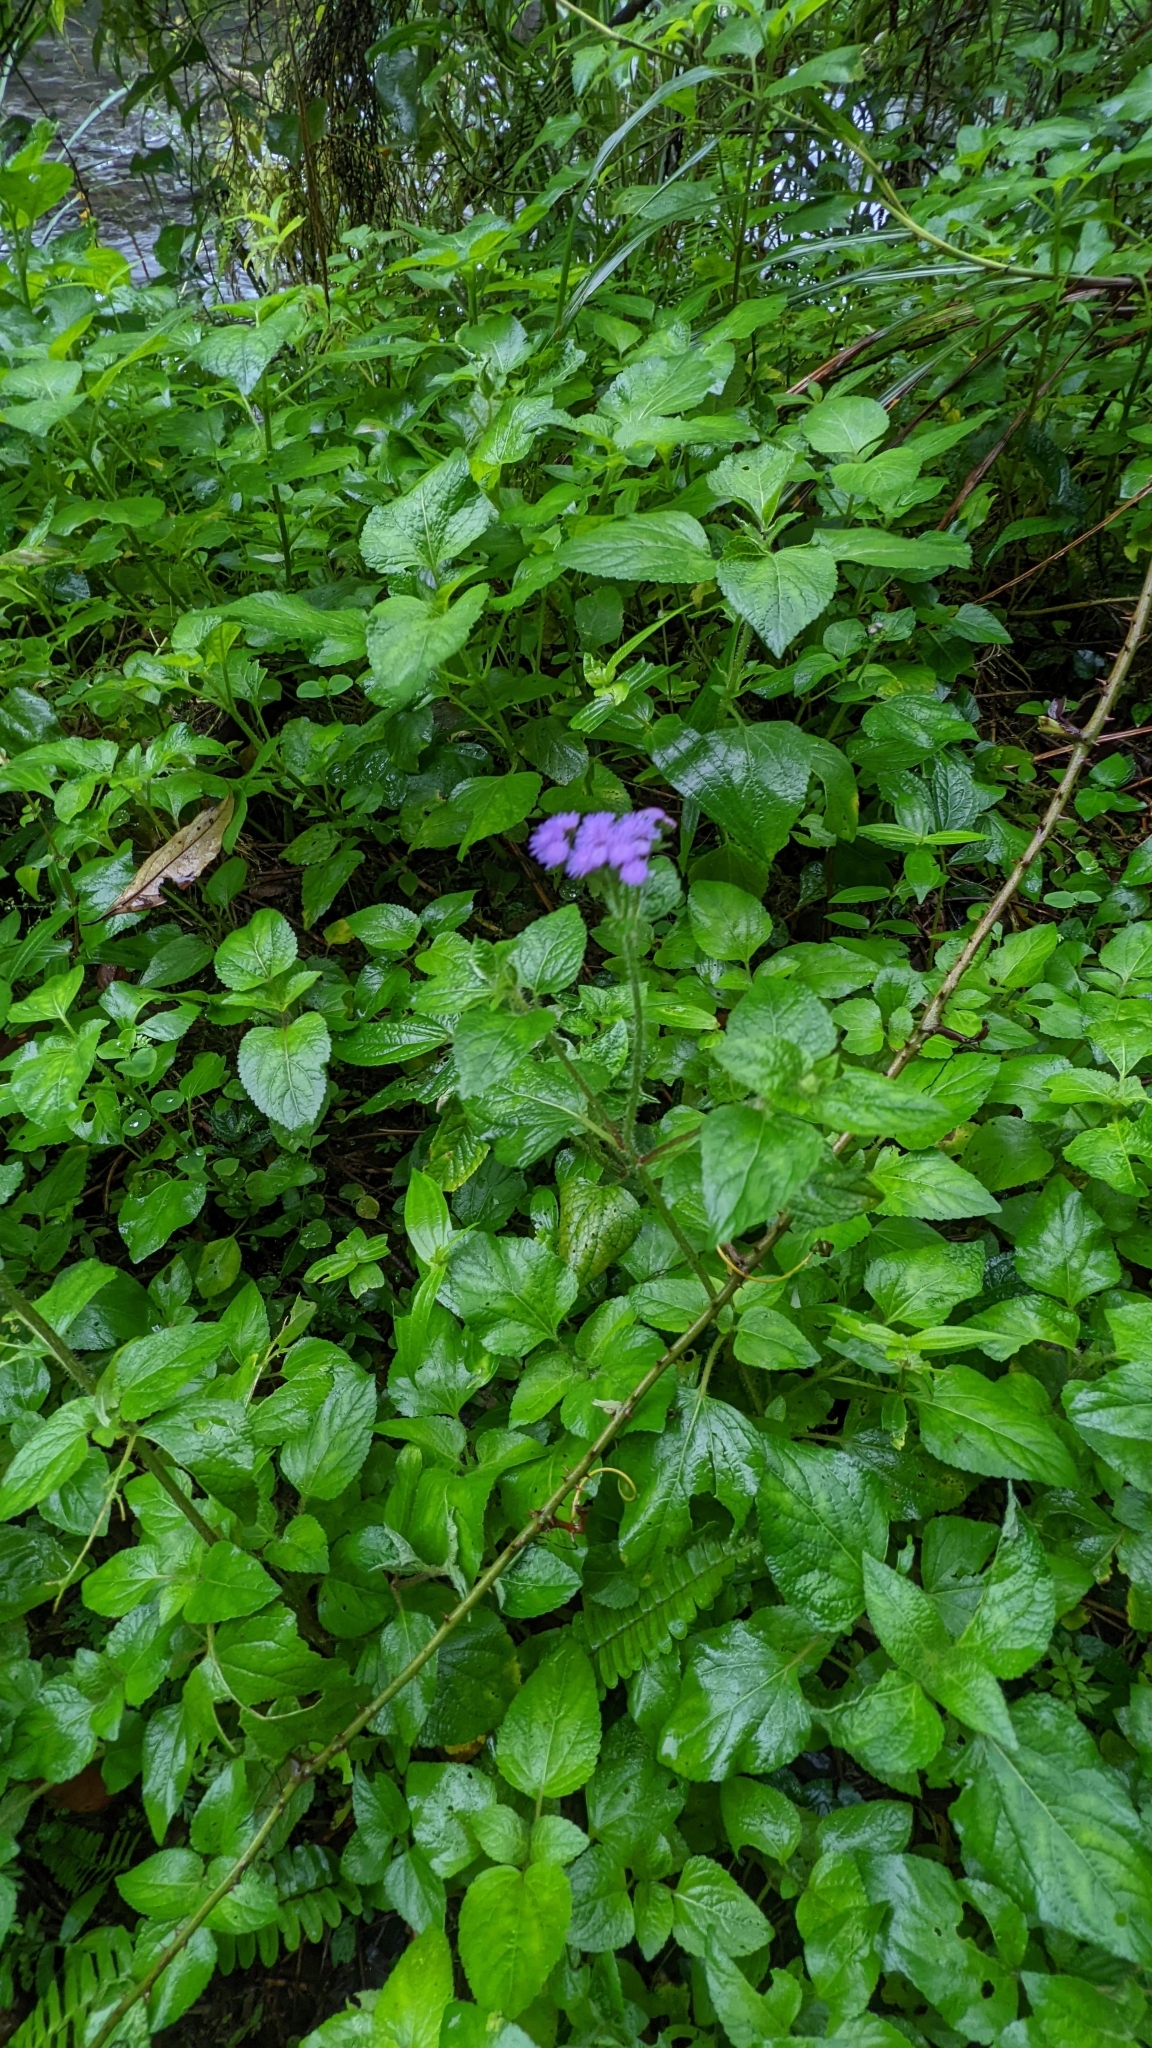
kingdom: Plantae
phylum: Tracheophyta
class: Magnoliopsida
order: Asterales
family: Asteraceae
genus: Ageratum
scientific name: Ageratum houstonianum
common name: Bluemink
